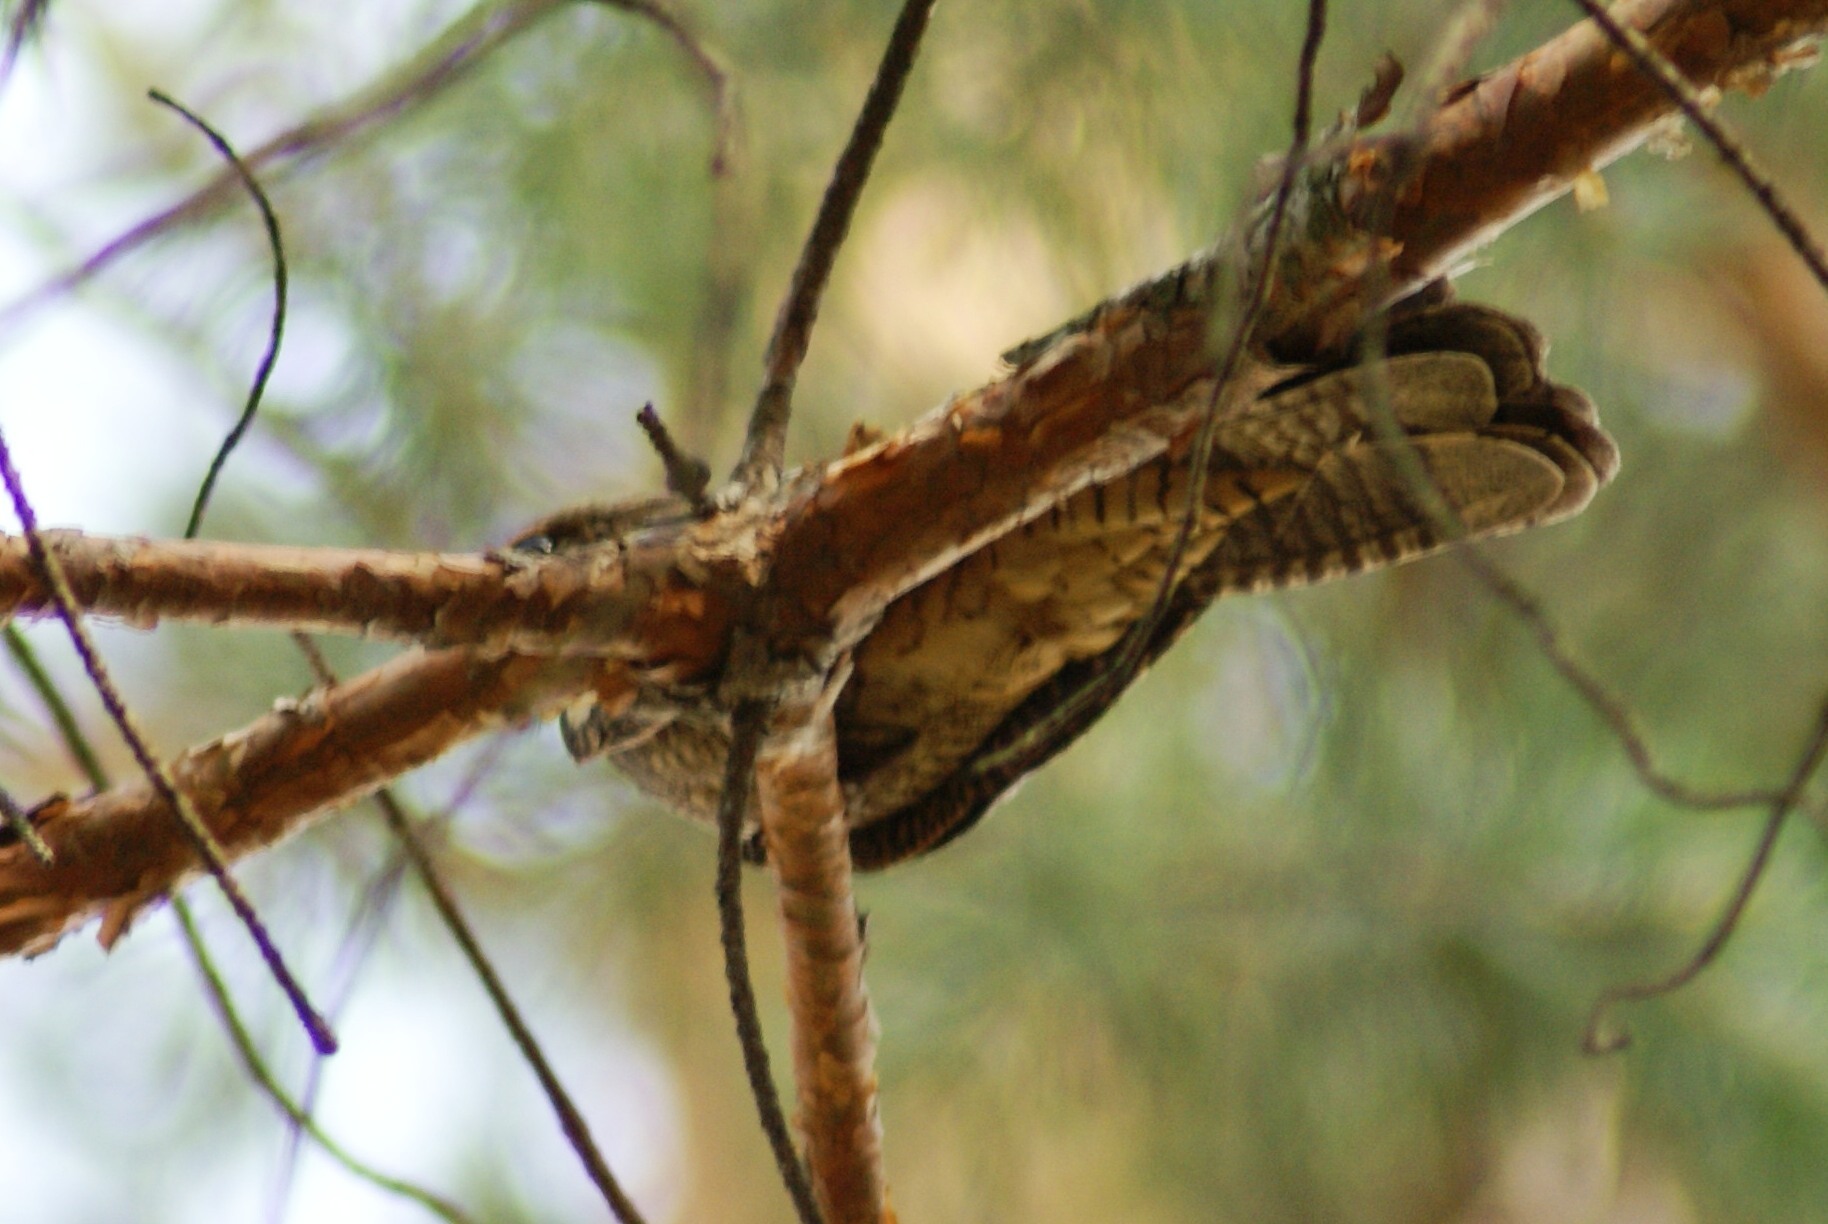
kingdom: Animalia
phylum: Chordata
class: Aves
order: Caprimulgiformes
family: Caprimulgidae
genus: Caprimulgus
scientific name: Caprimulgus europaeus
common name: European nightjar
